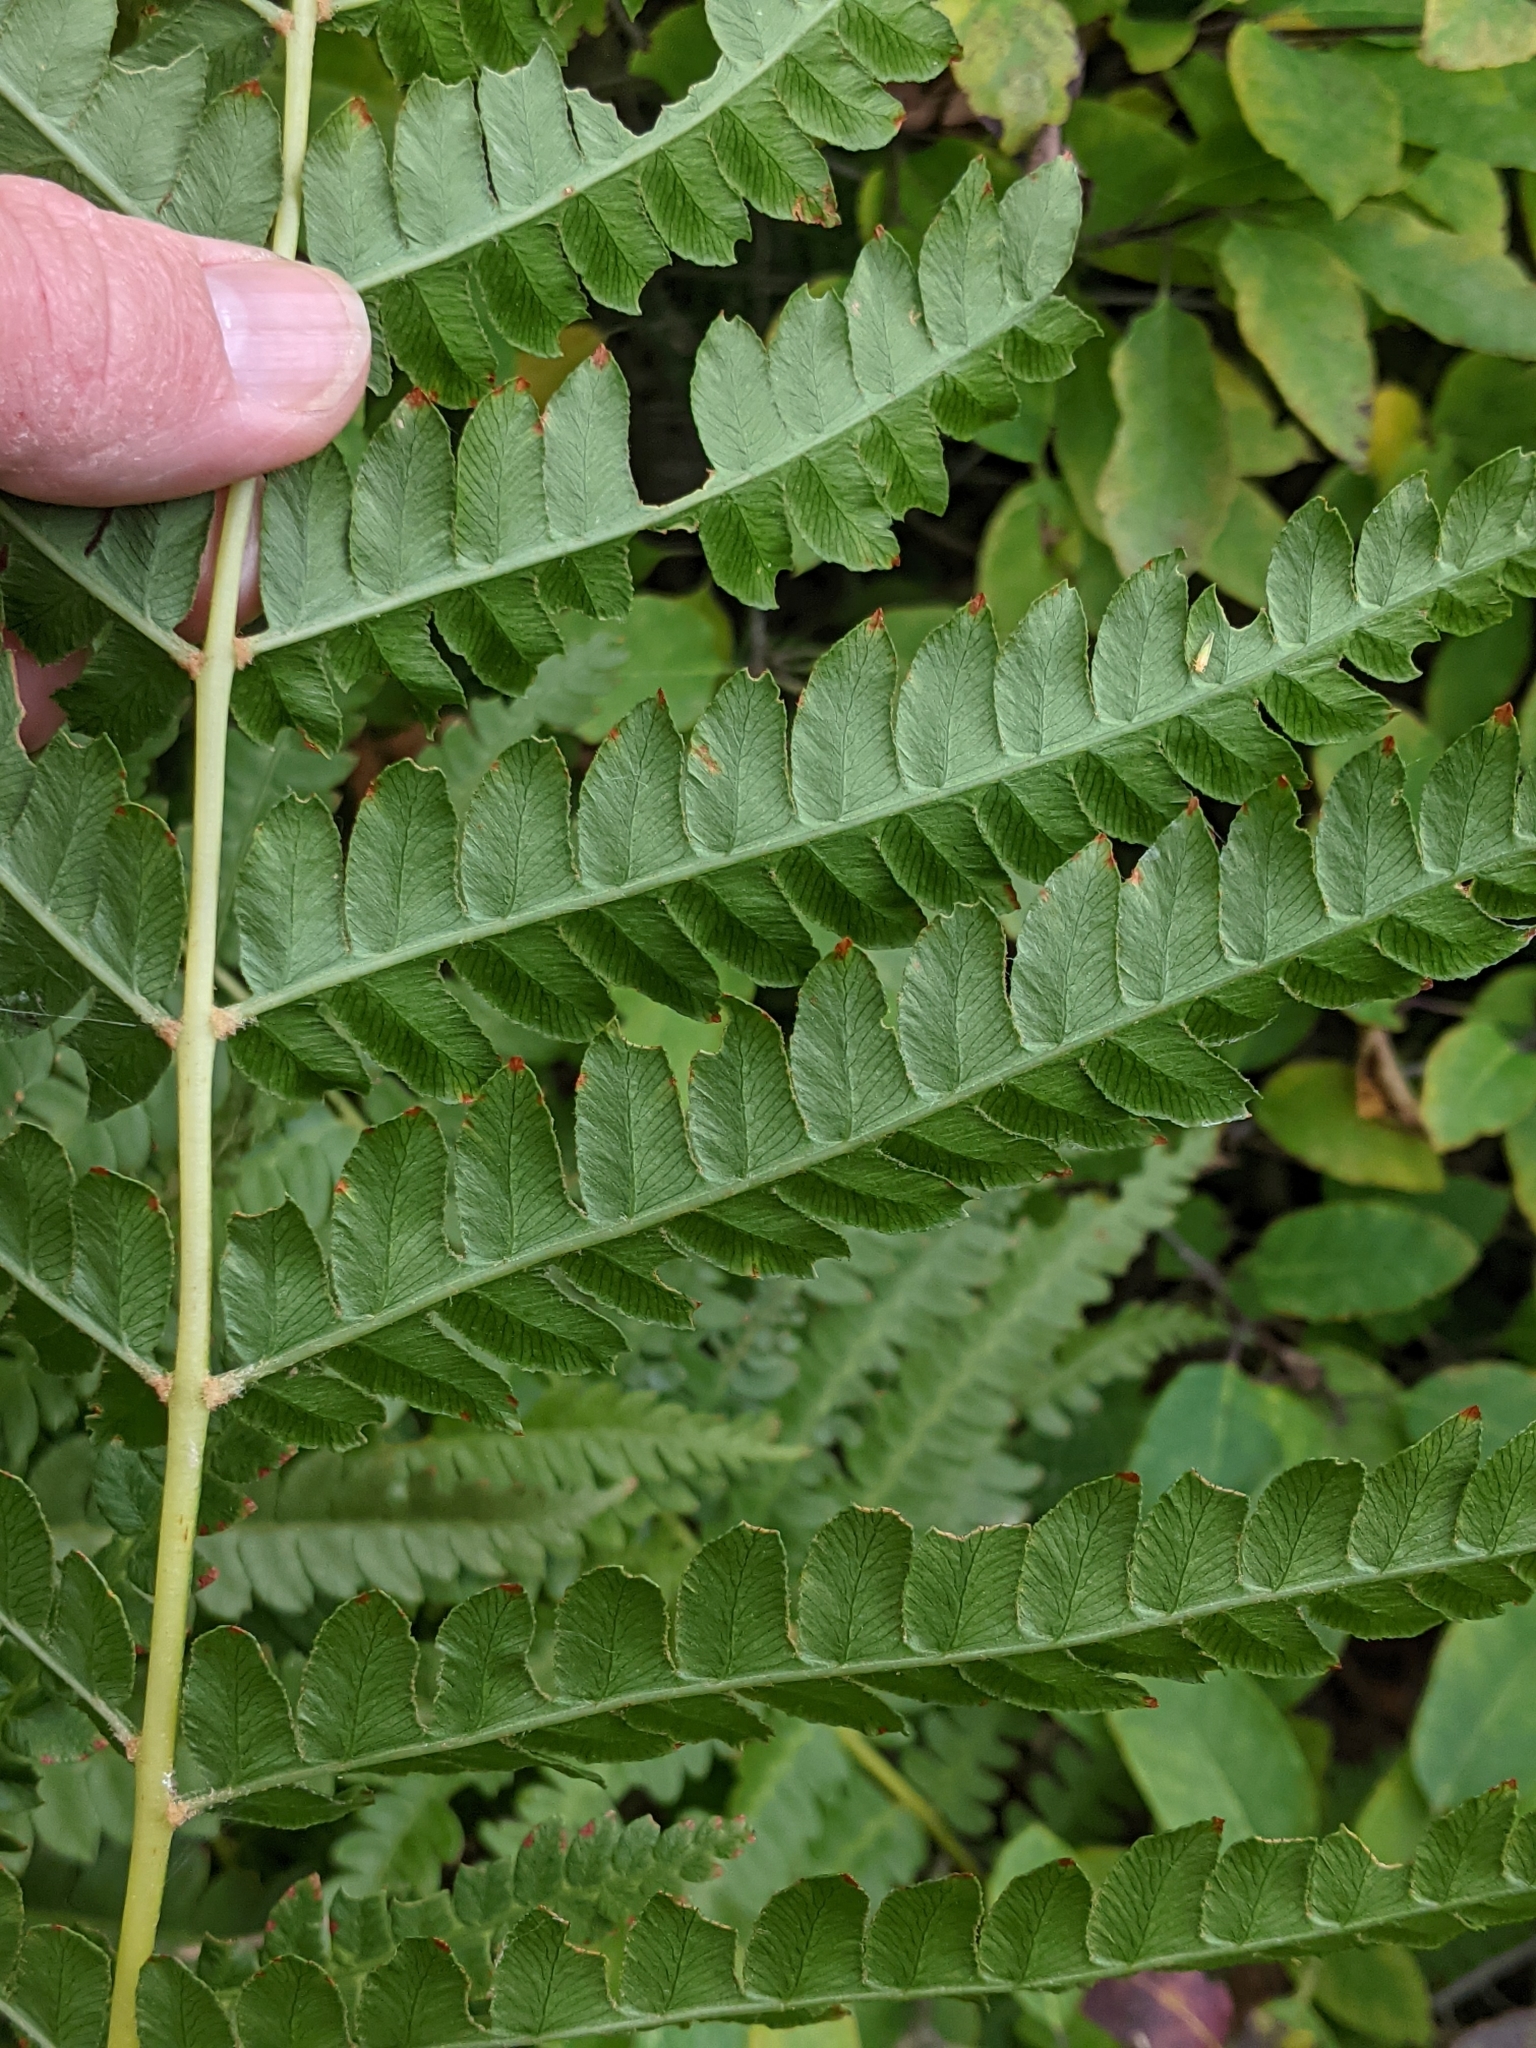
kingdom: Plantae
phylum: Tracheophyta
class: Polypodiopsida
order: Osmundales
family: Osmundaceae
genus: Osmundastrum
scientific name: Osmundastrum cinnamomeum
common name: Cinnamon fern
